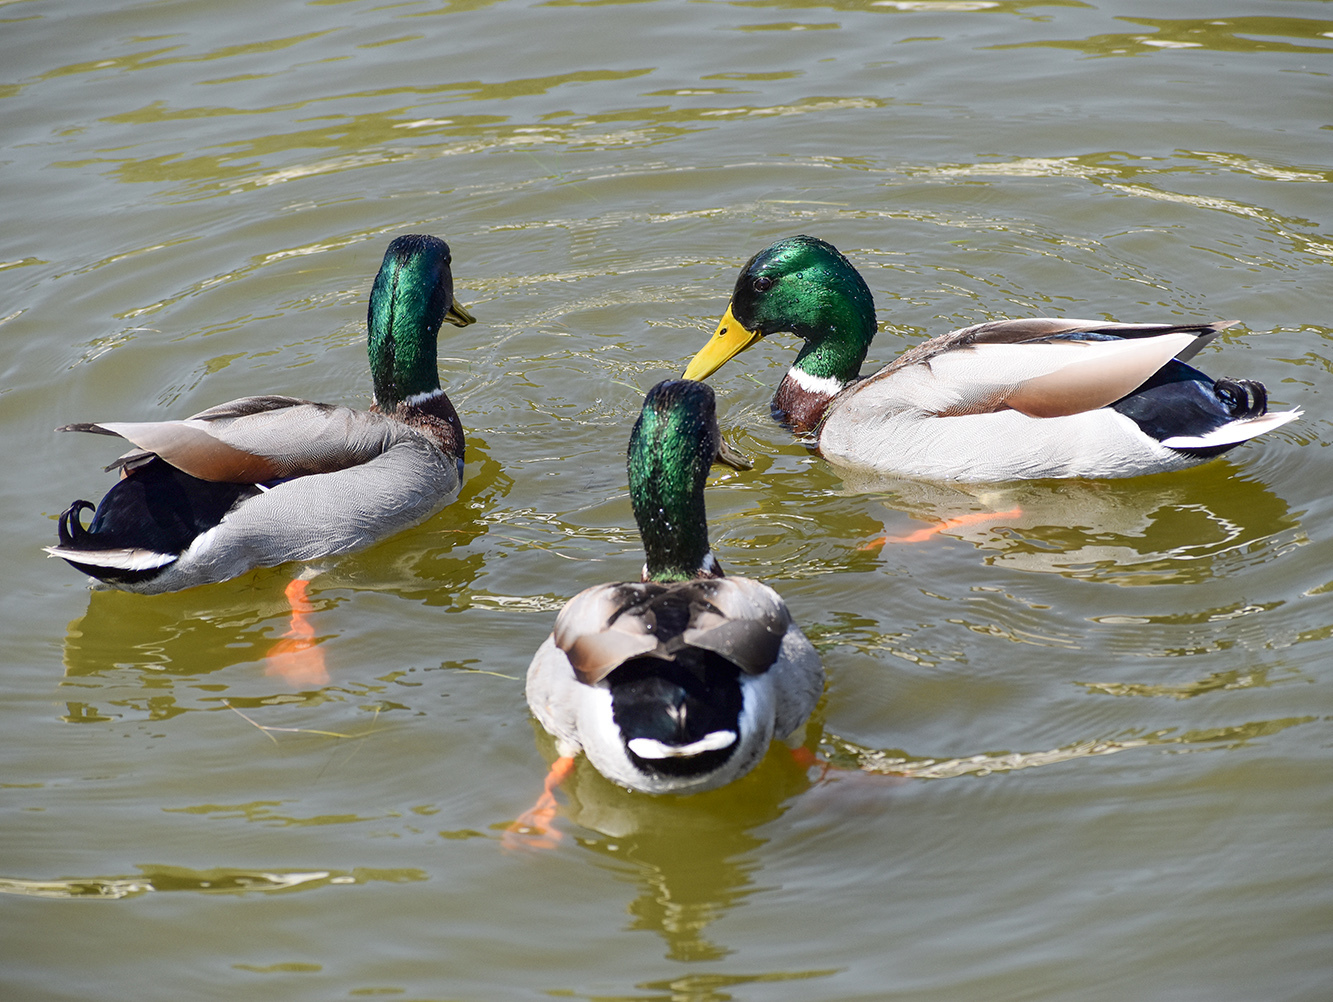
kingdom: Animalia
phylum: Chordata
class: Aves
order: Anseriformes
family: Anatidae
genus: Anas
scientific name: Anas platyrhynchos
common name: Mallard
